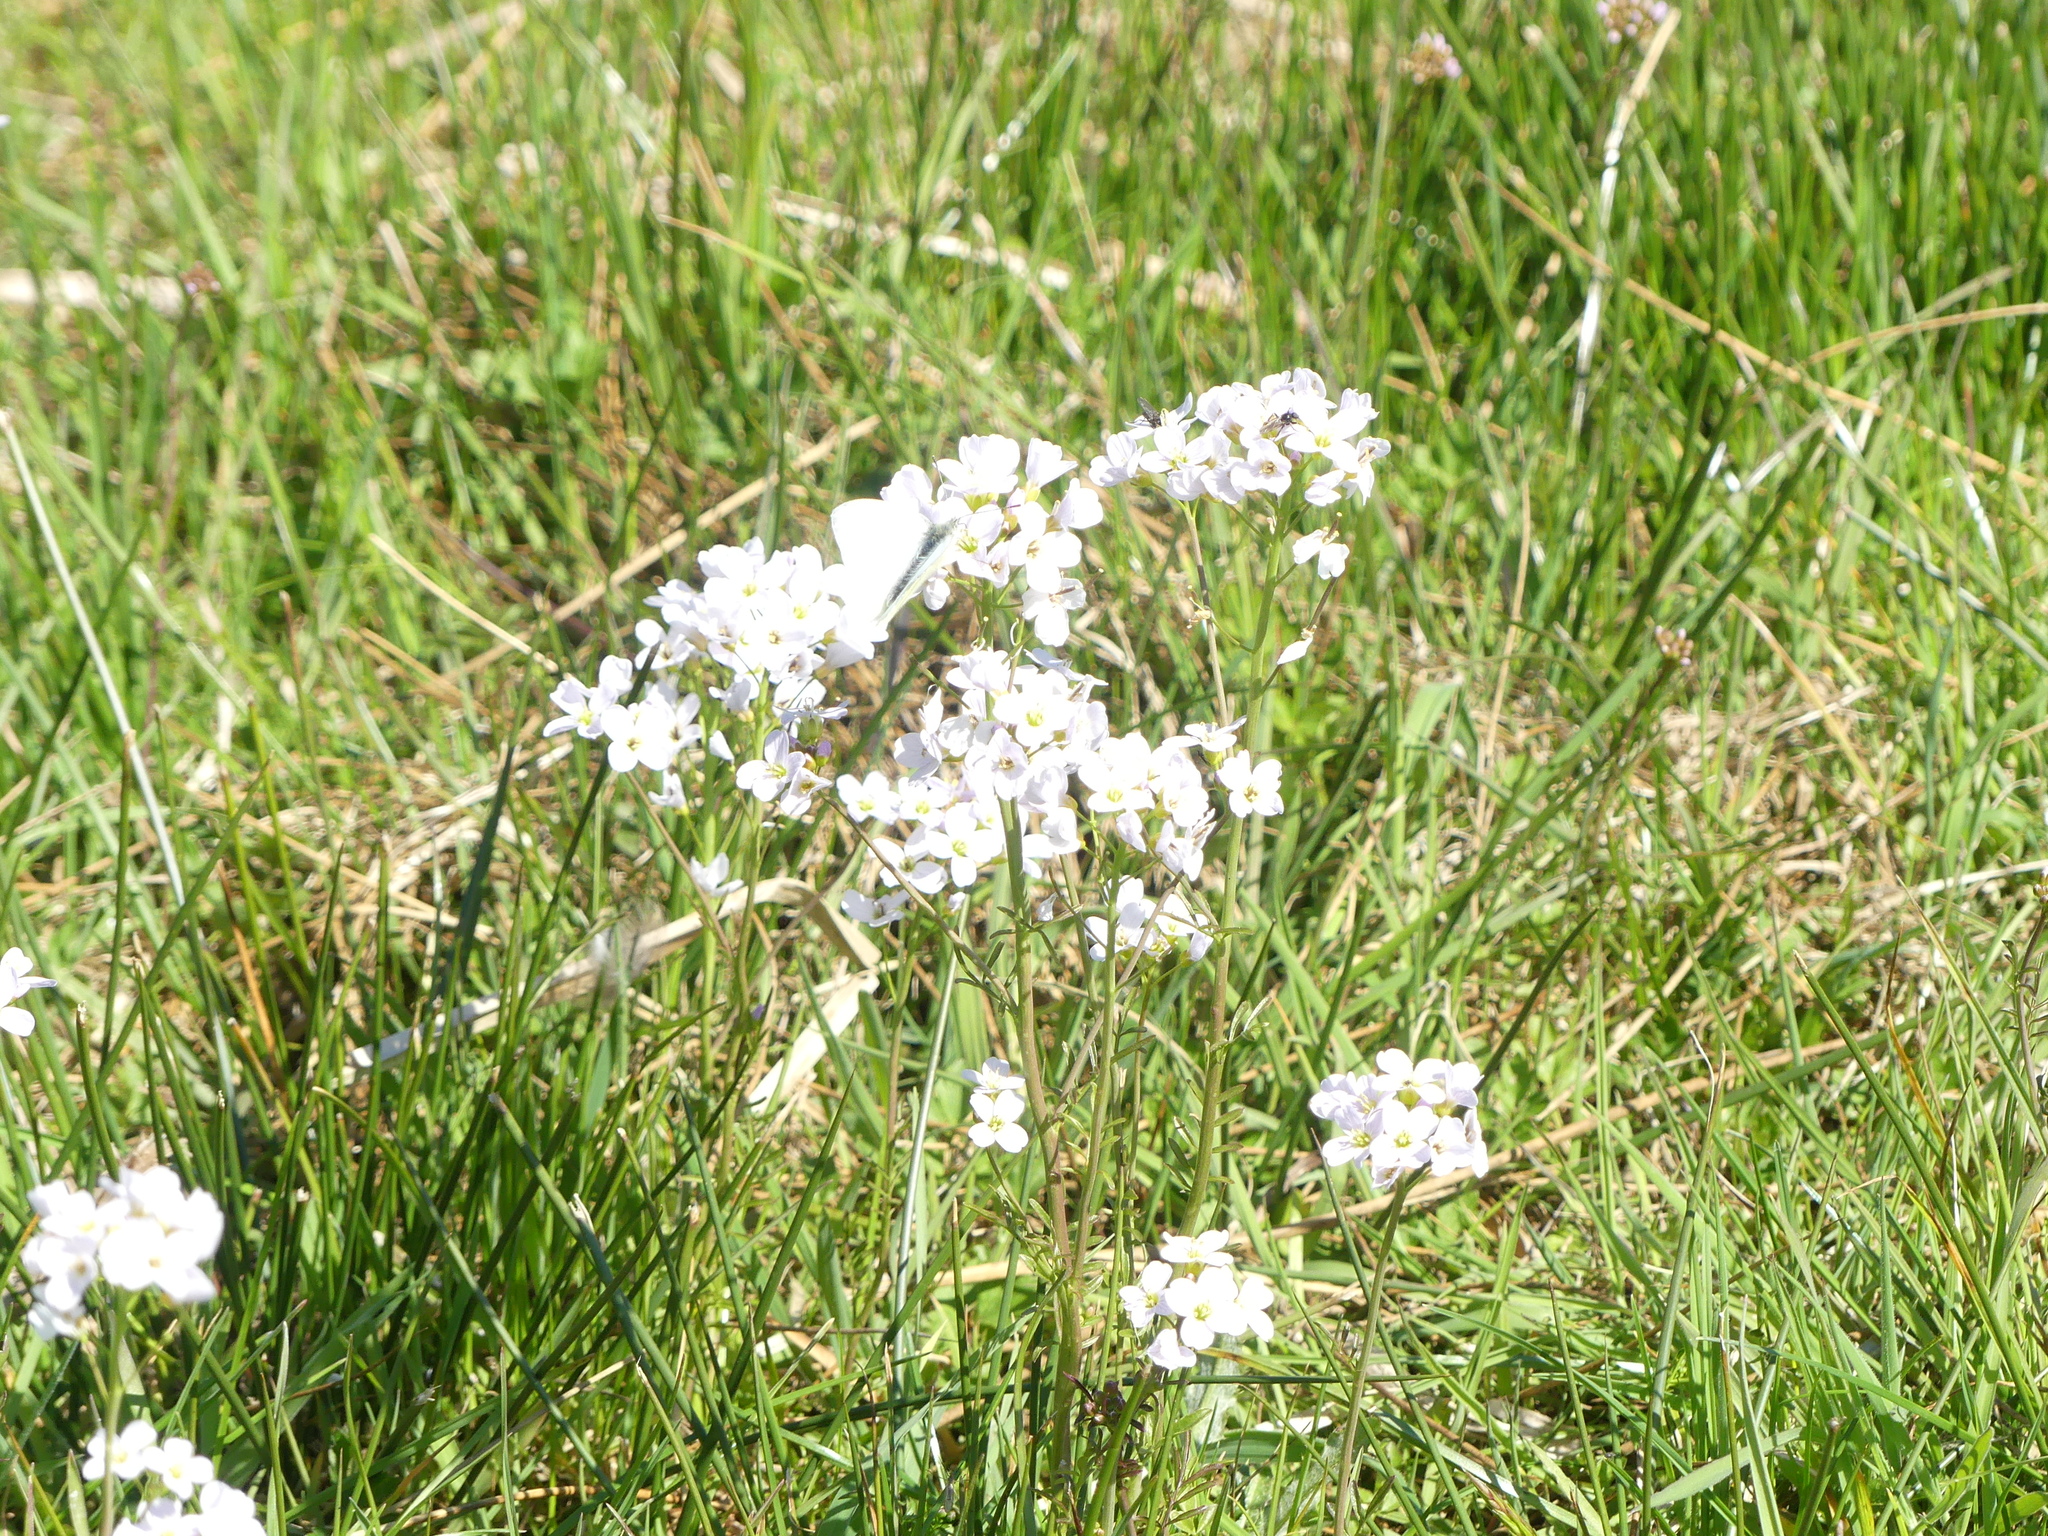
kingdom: Plantae
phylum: Tracheophyta
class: Magnoliopsida
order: Brassicales
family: Brassicaceae
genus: Cardamine
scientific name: Cardamine pratensis
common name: Cuckoo flower
